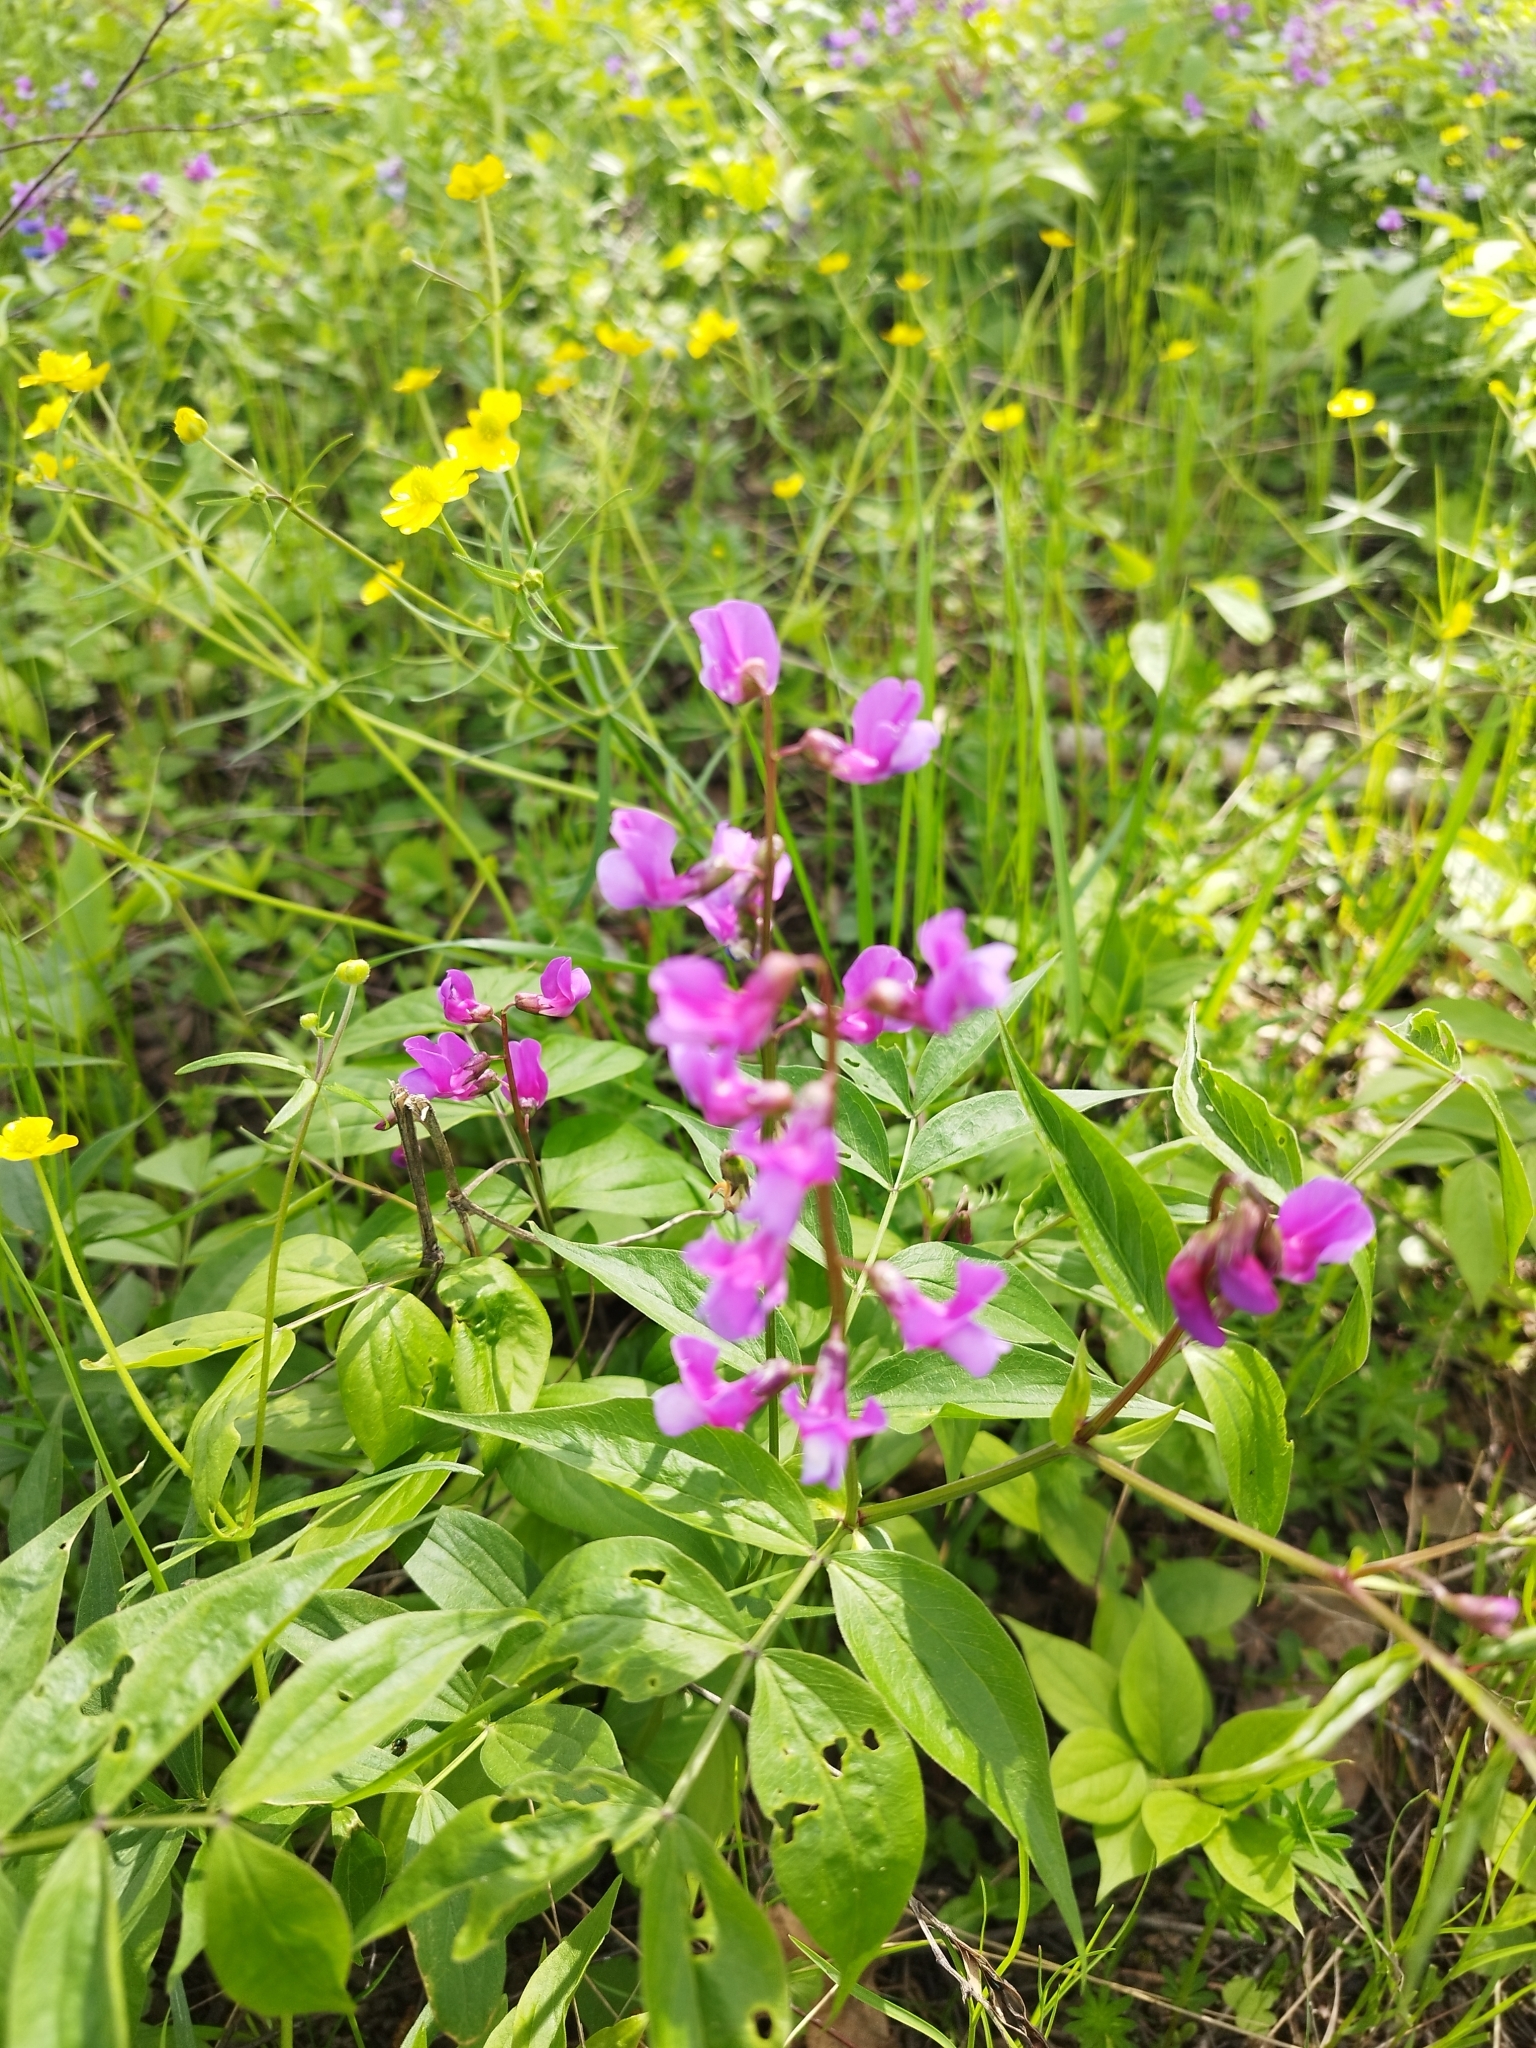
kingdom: Plantae
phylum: Tracheophyta
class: Magnoliopsida
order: Fabales
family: Fabaceae
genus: Lathyrus
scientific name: Lathyrus vernus
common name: Spring pea
